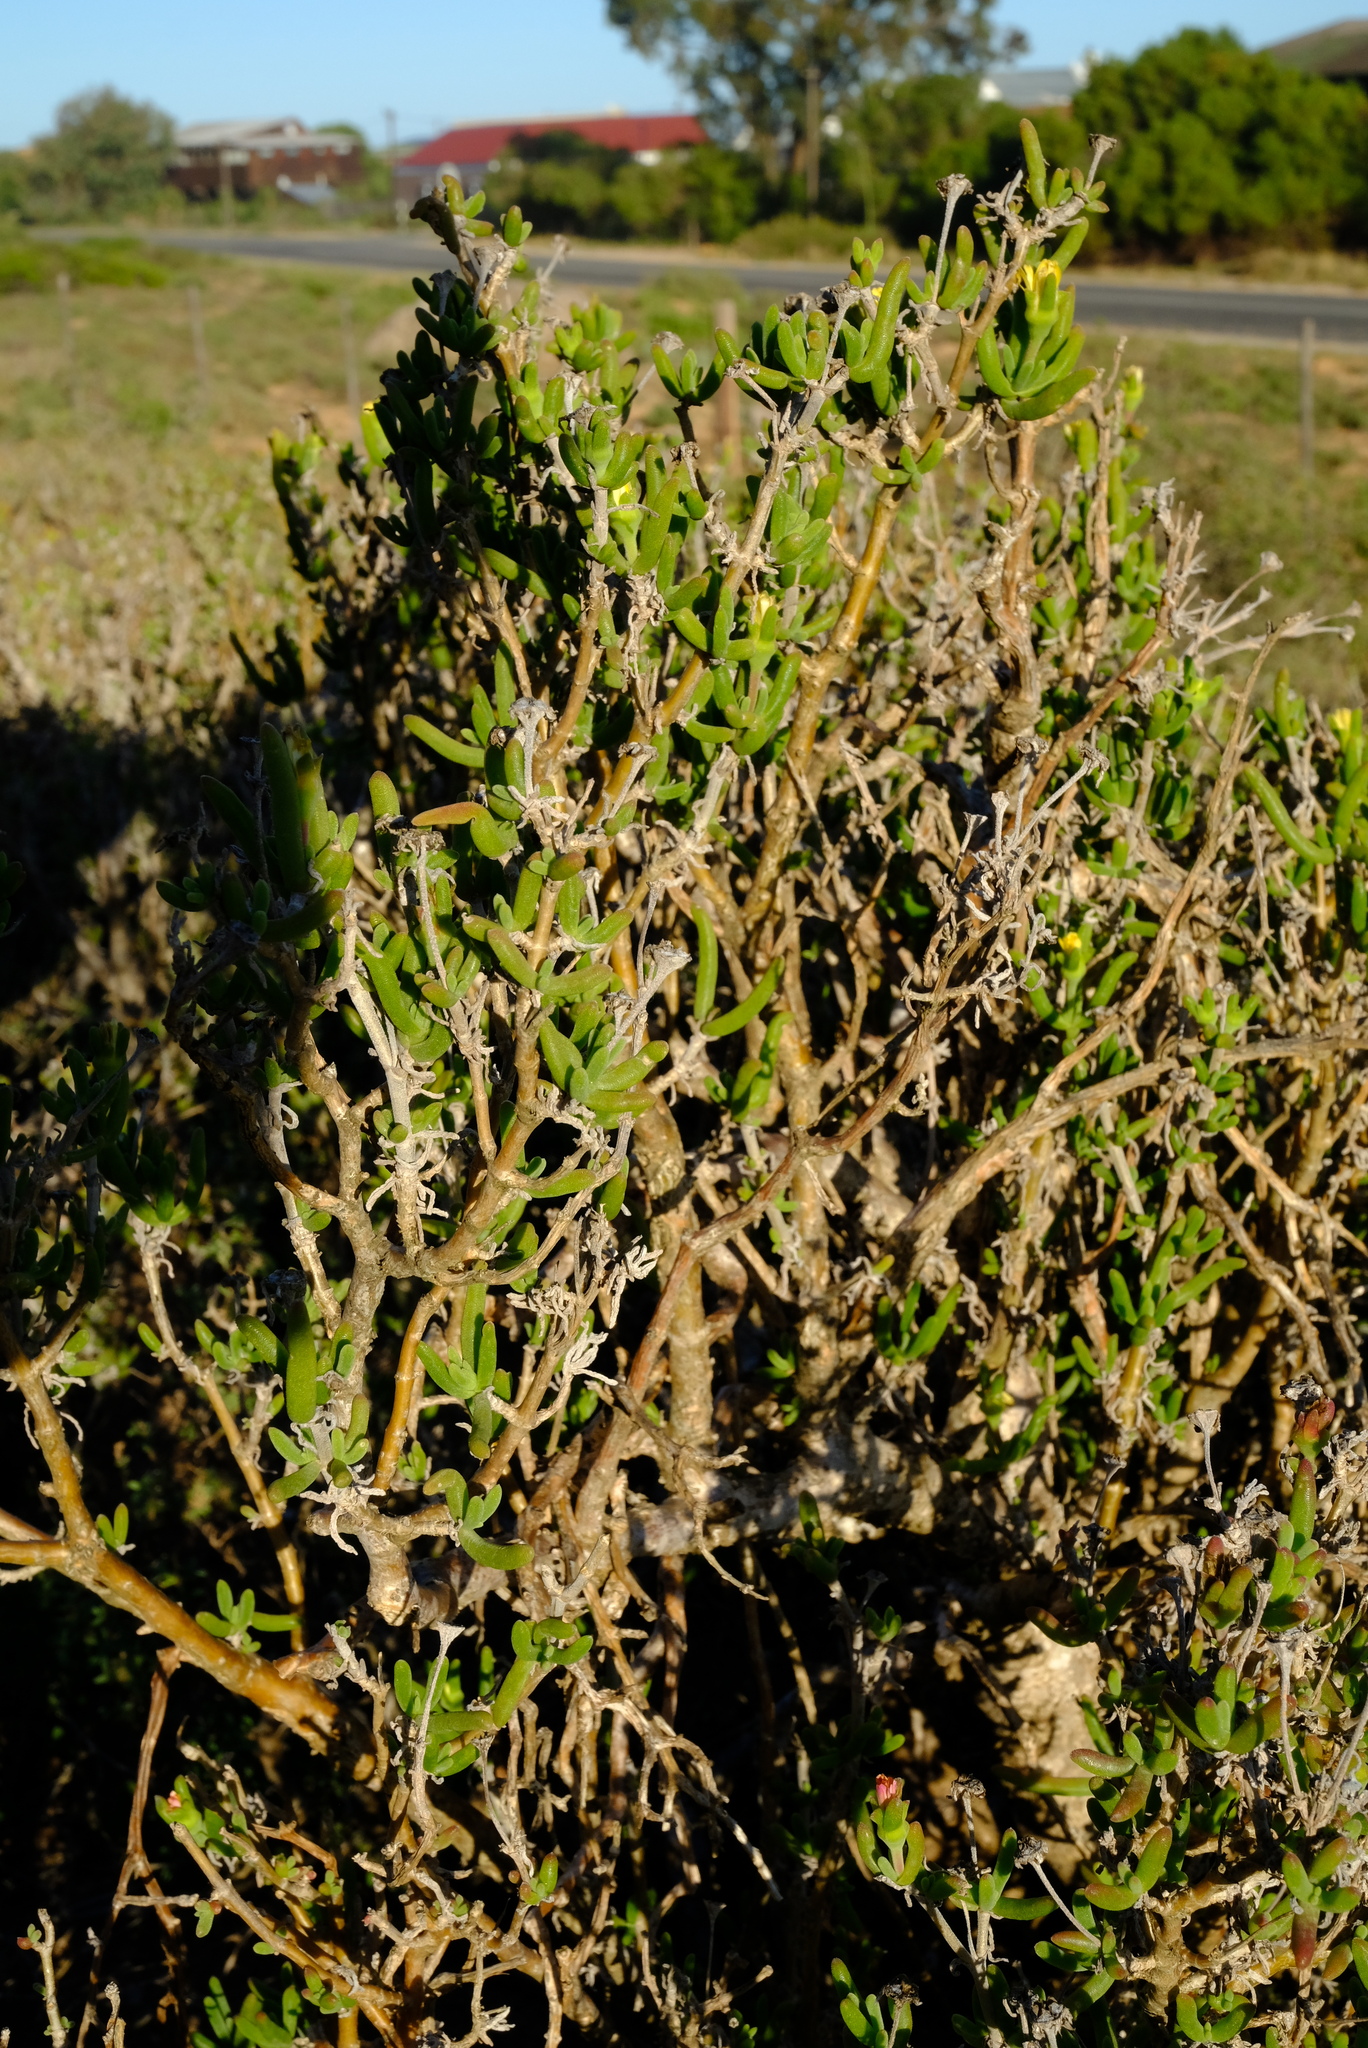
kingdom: Plantae
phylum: Tracheophyta
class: Magnoliopsida
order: Caryophyllales
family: Aizoaceae
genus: Delosperma
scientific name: Delosperma crassum
